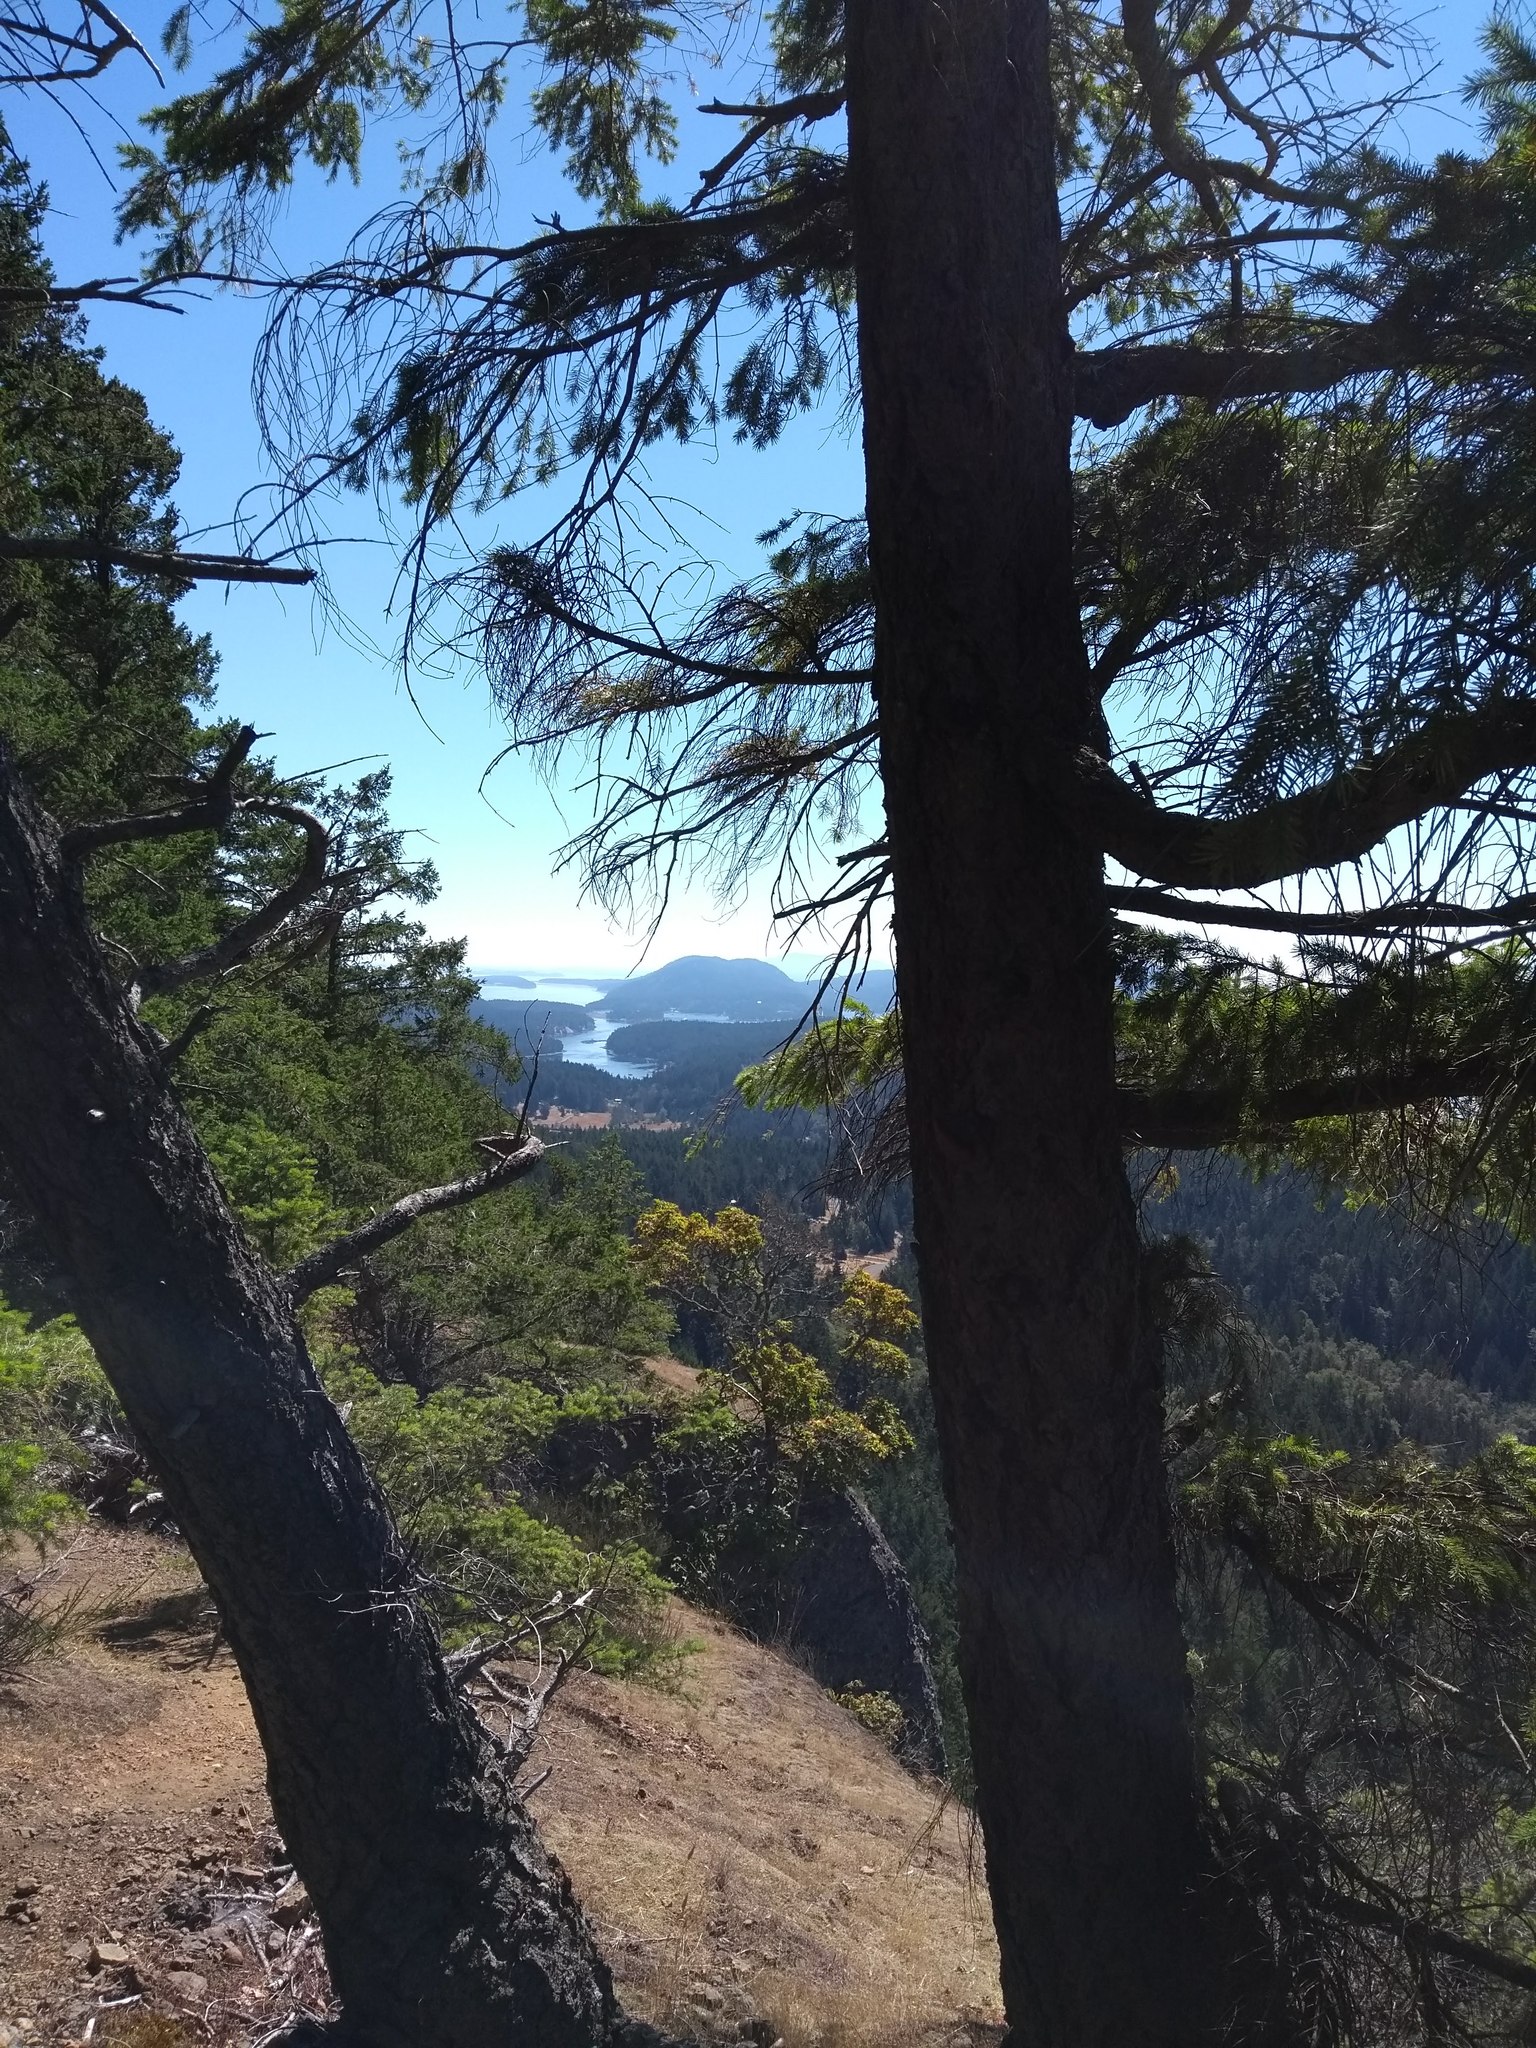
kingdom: Plantae
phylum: Tracheophyta
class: Pinopsida
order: Pinales
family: Pinaceae
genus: Pseudotsuga
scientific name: Pseudotsuga menziesii
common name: Douglas fir
